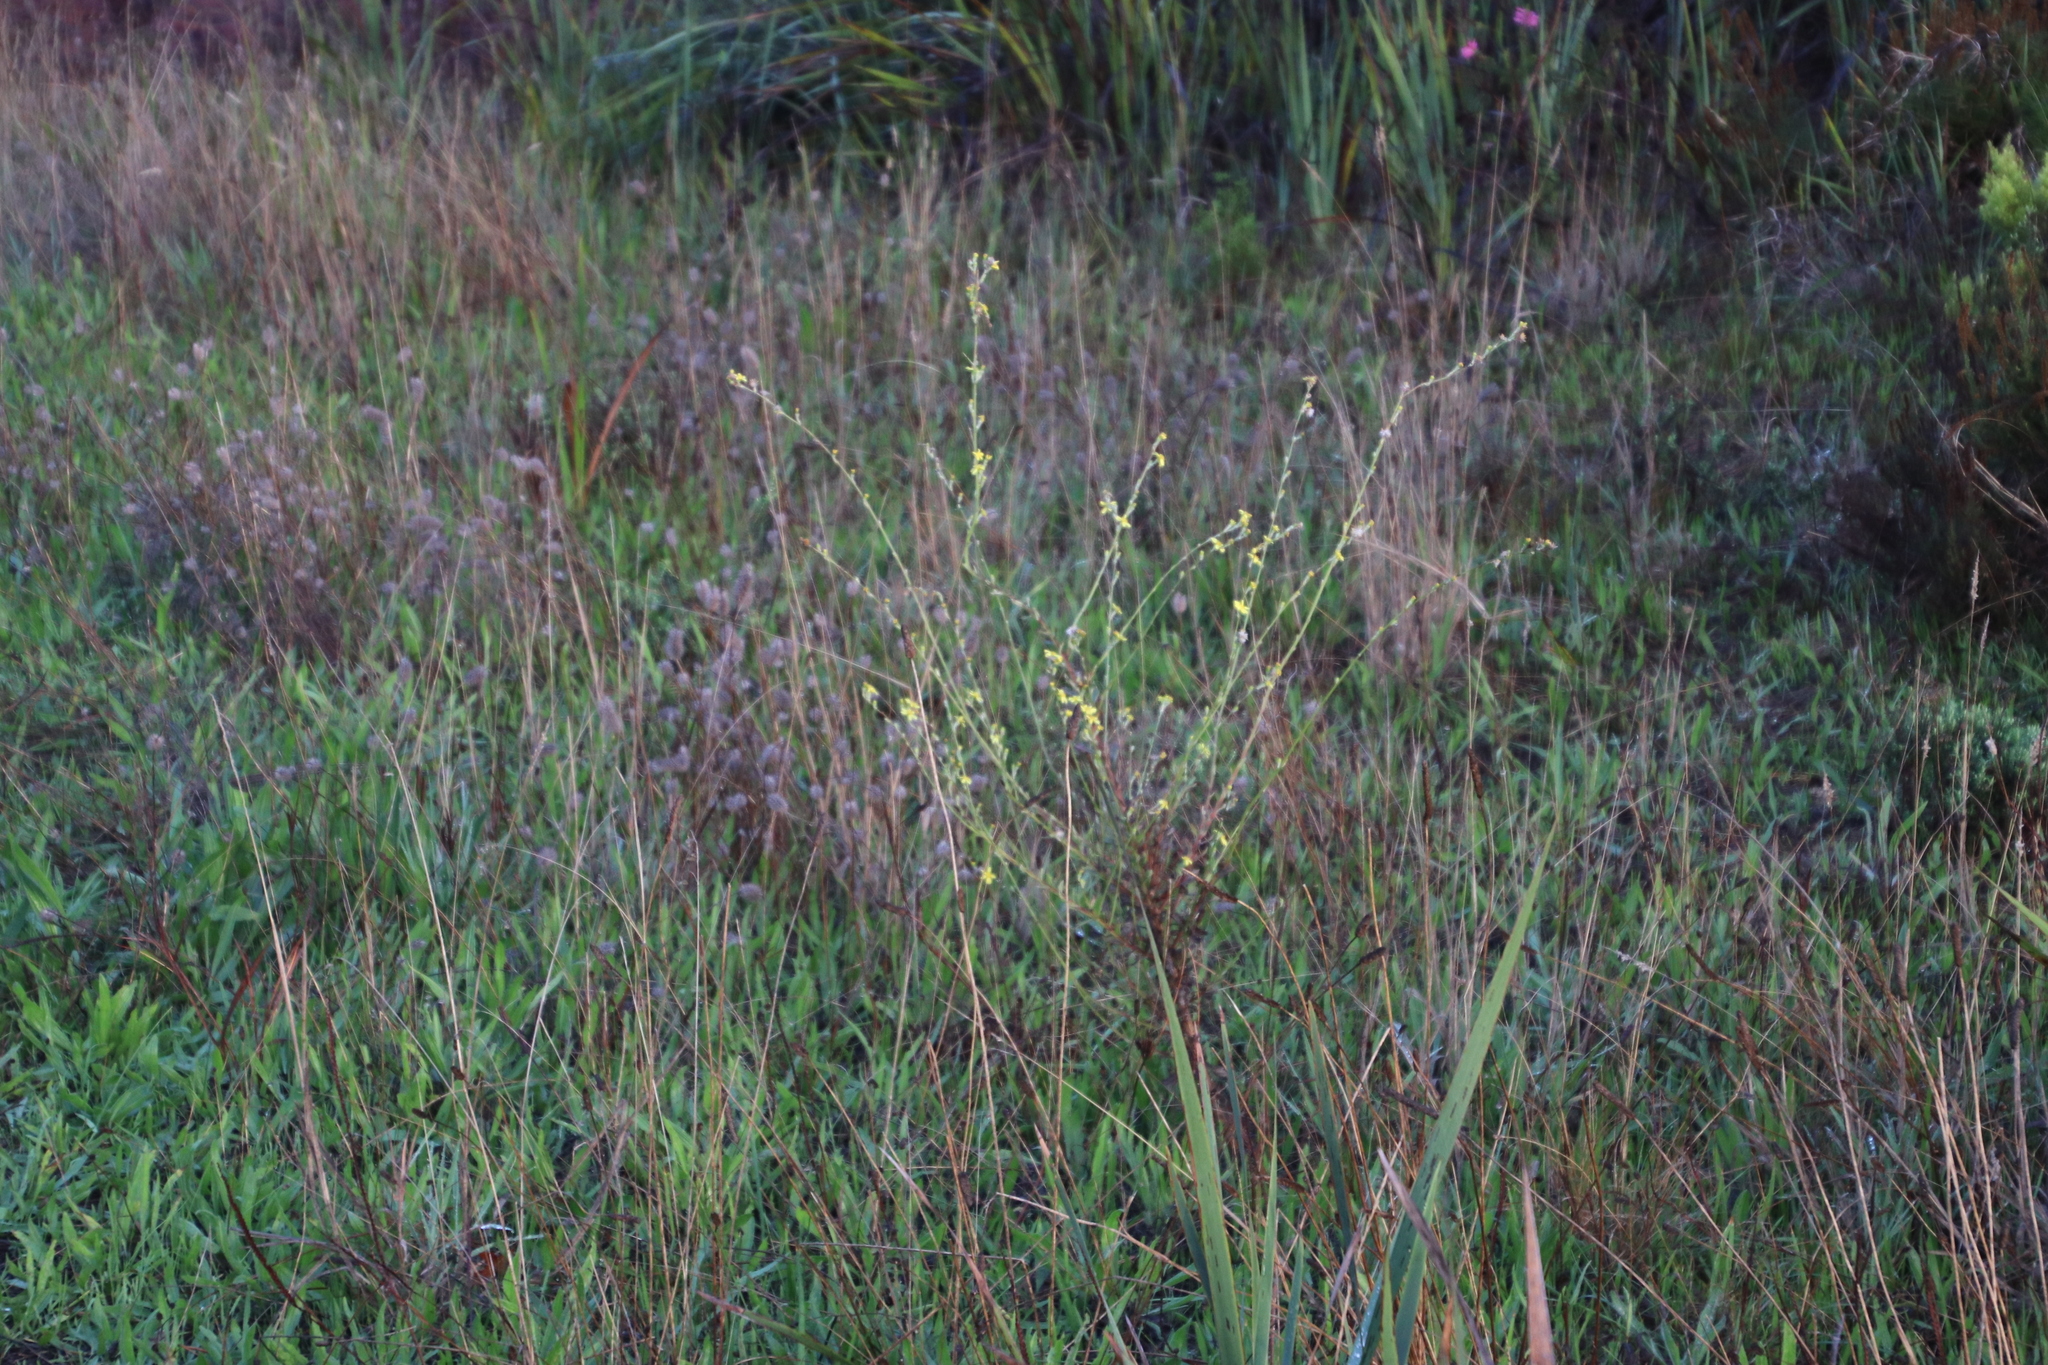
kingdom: Plantae
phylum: Tracheophyta
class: Magnoliopsida
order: Asterales
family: Asteraceae
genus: Senecio
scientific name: Senecio pubigerus
